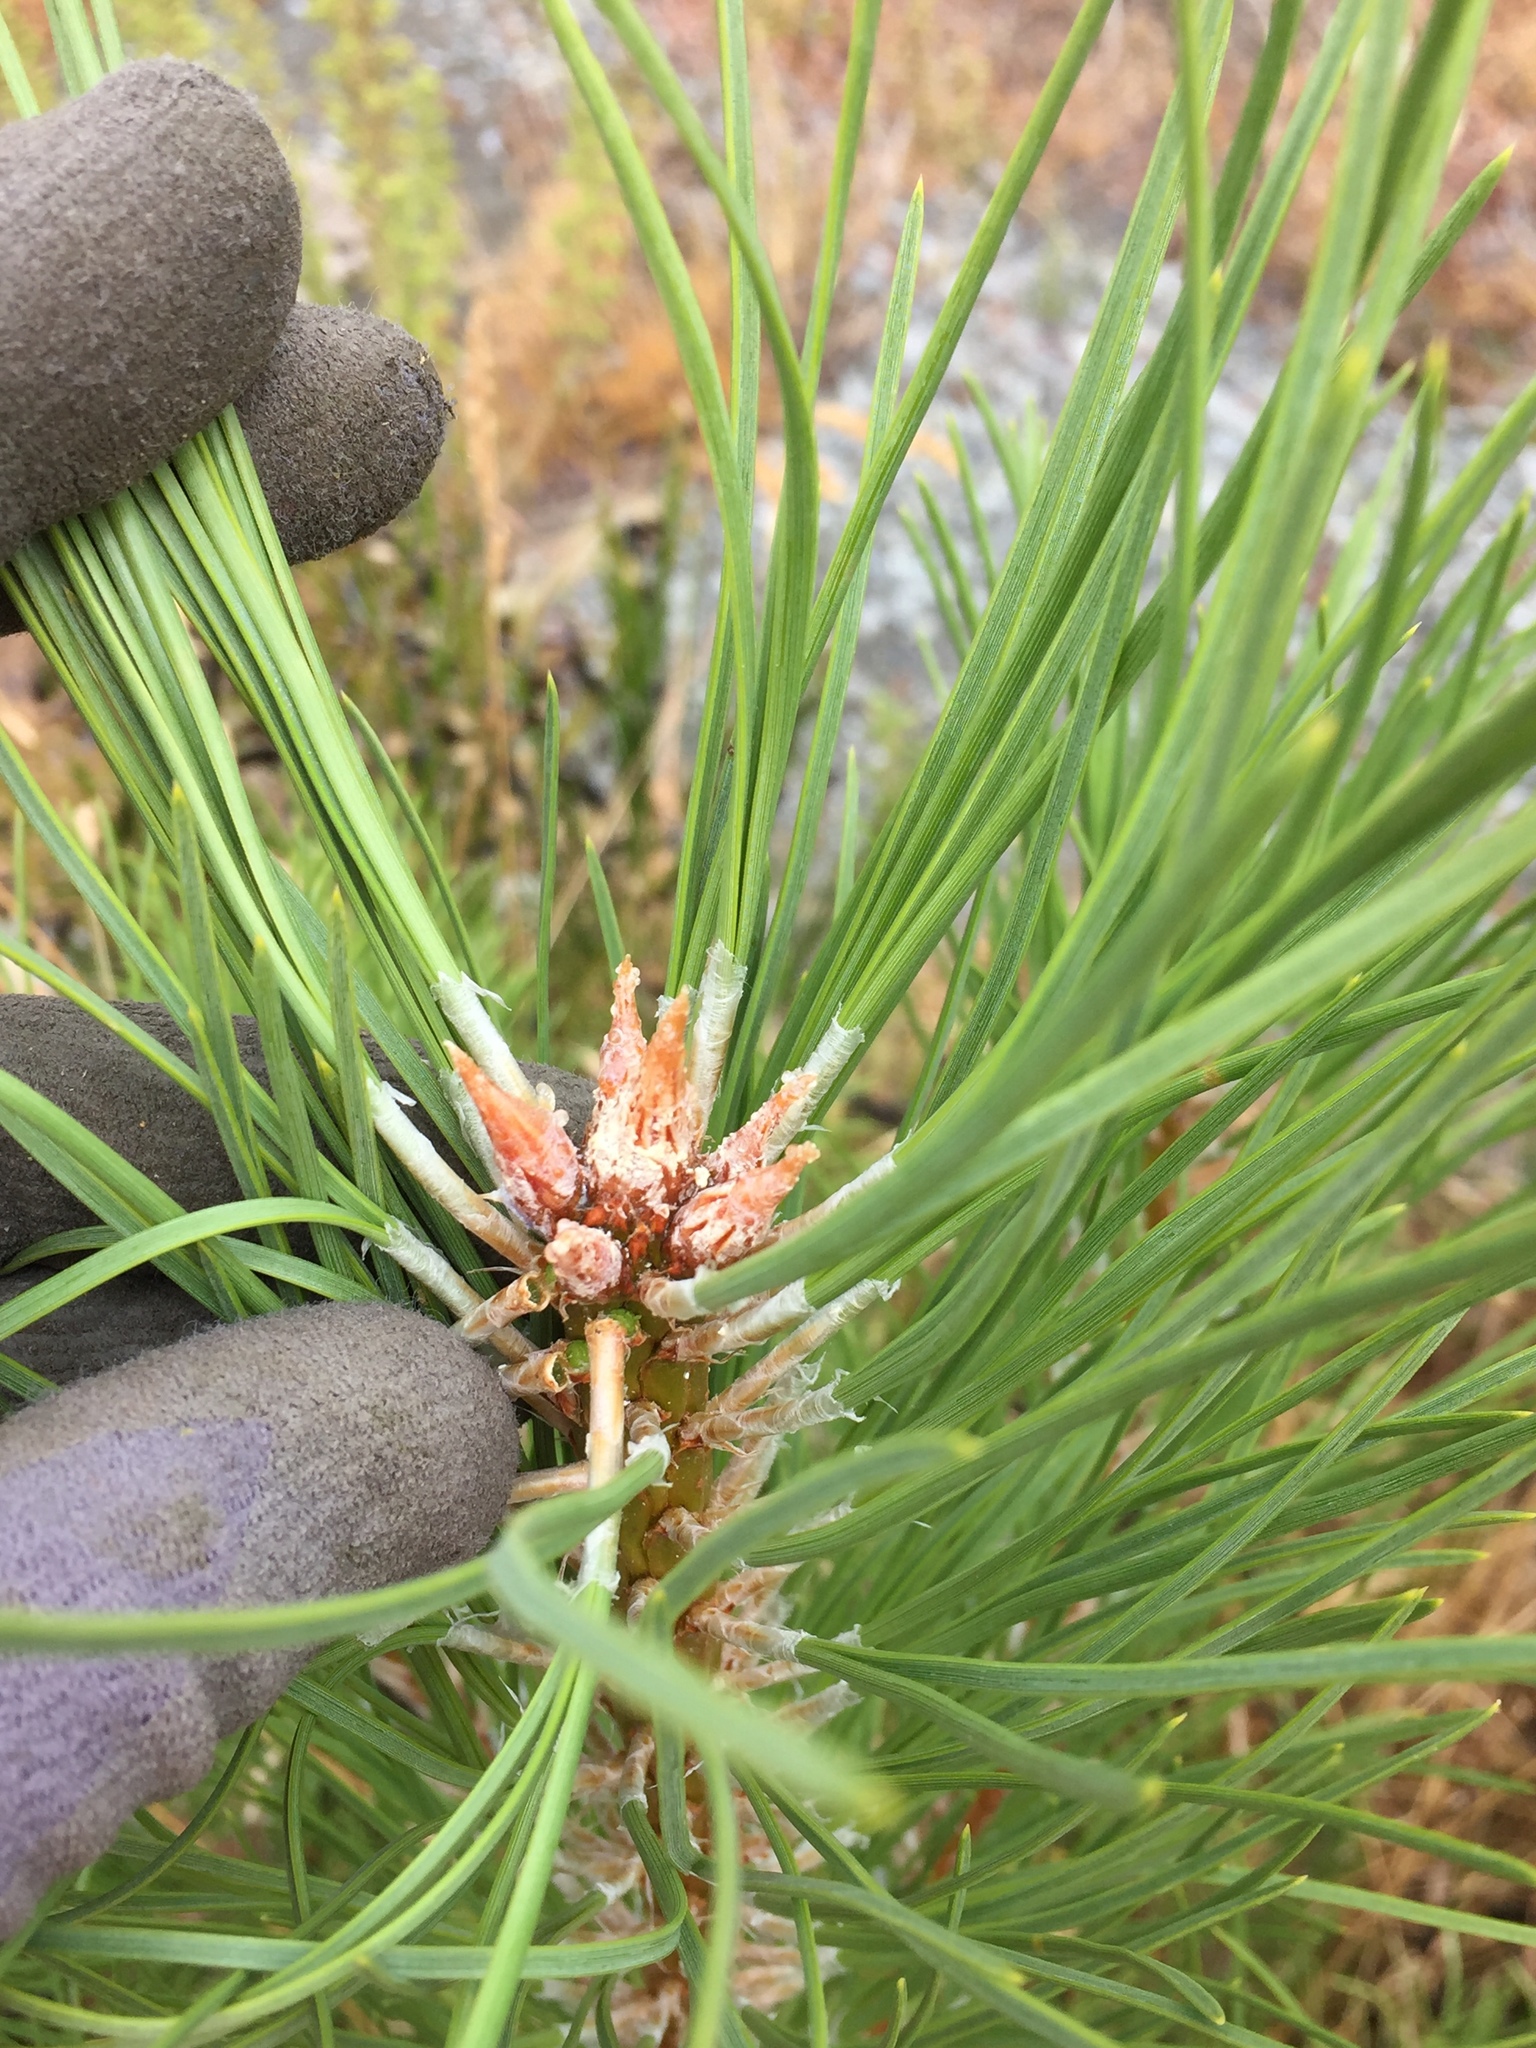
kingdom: Plantae
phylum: Tracheophyta
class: Pinopsida
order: Pinales
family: Pinaceae
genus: Pinus
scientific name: Pinus nigra
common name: Austrian pine
